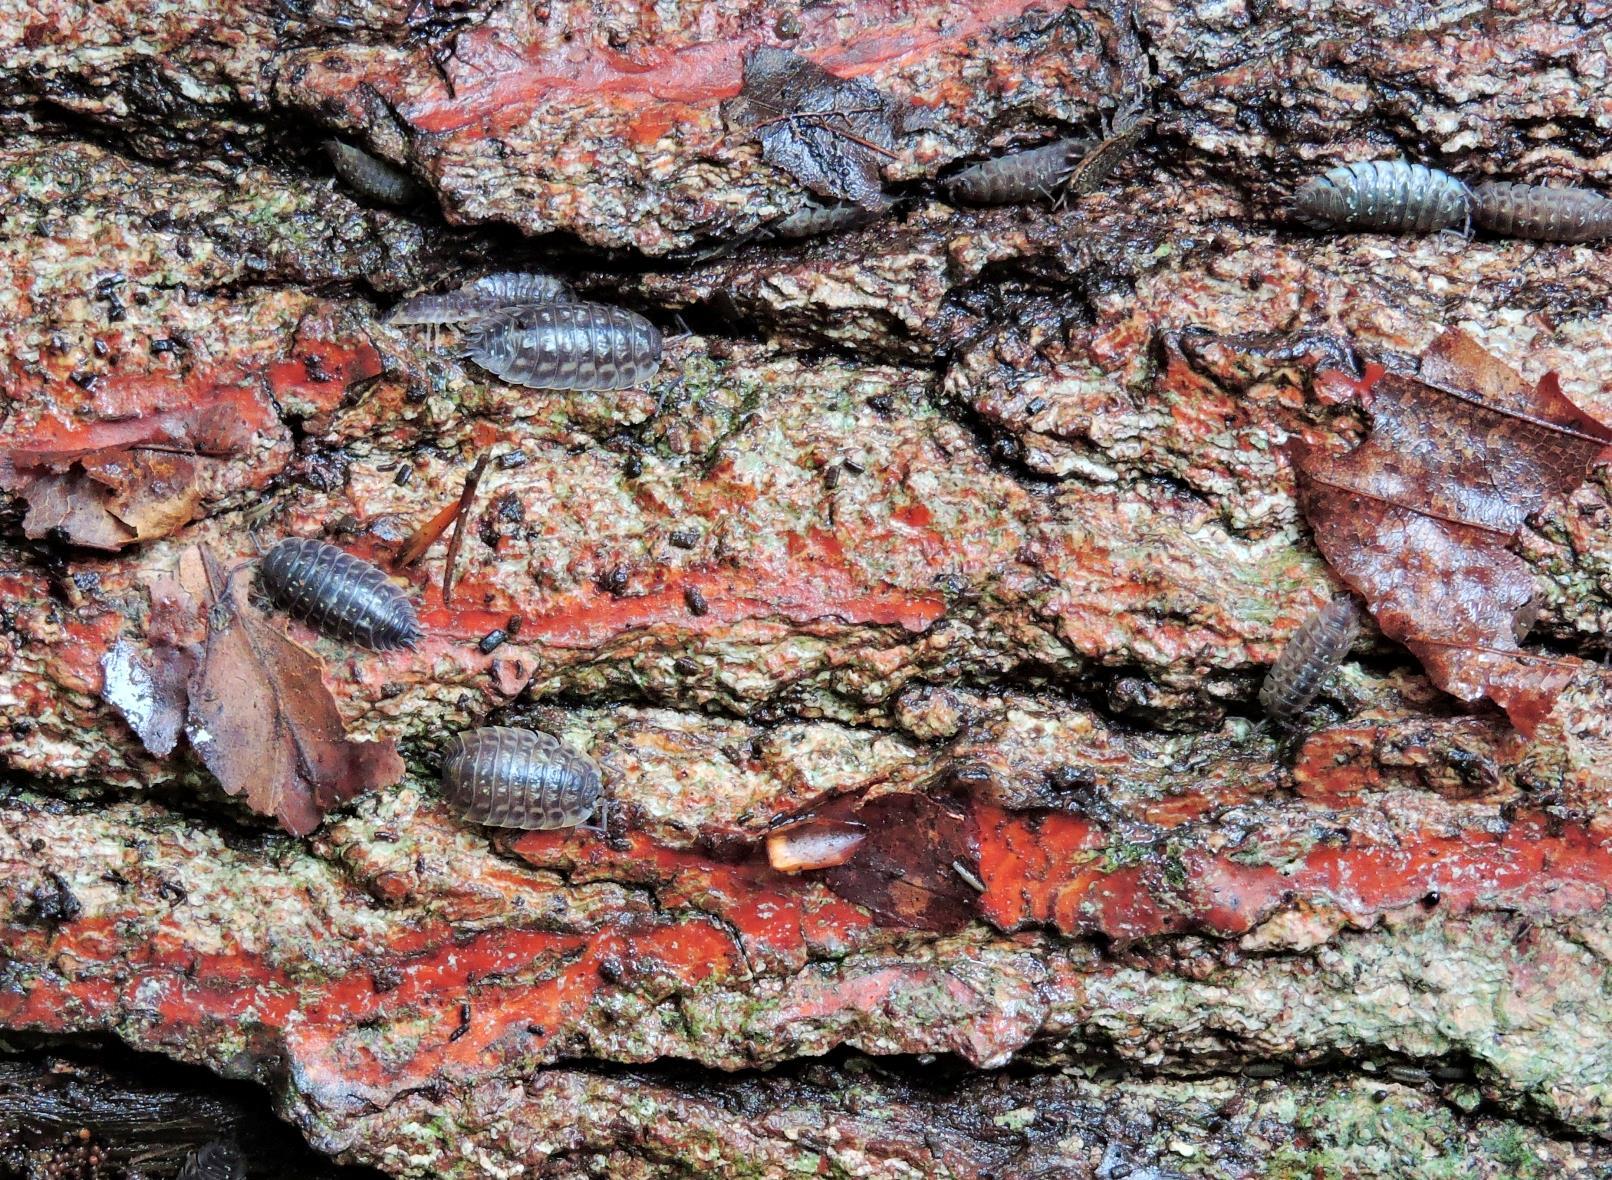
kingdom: Animalia
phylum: Arthropoda
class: Malacostraca
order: Isopoda
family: Oniscidae
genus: Oniscus
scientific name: Oniscus asellus
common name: Common shiny woodlouse
